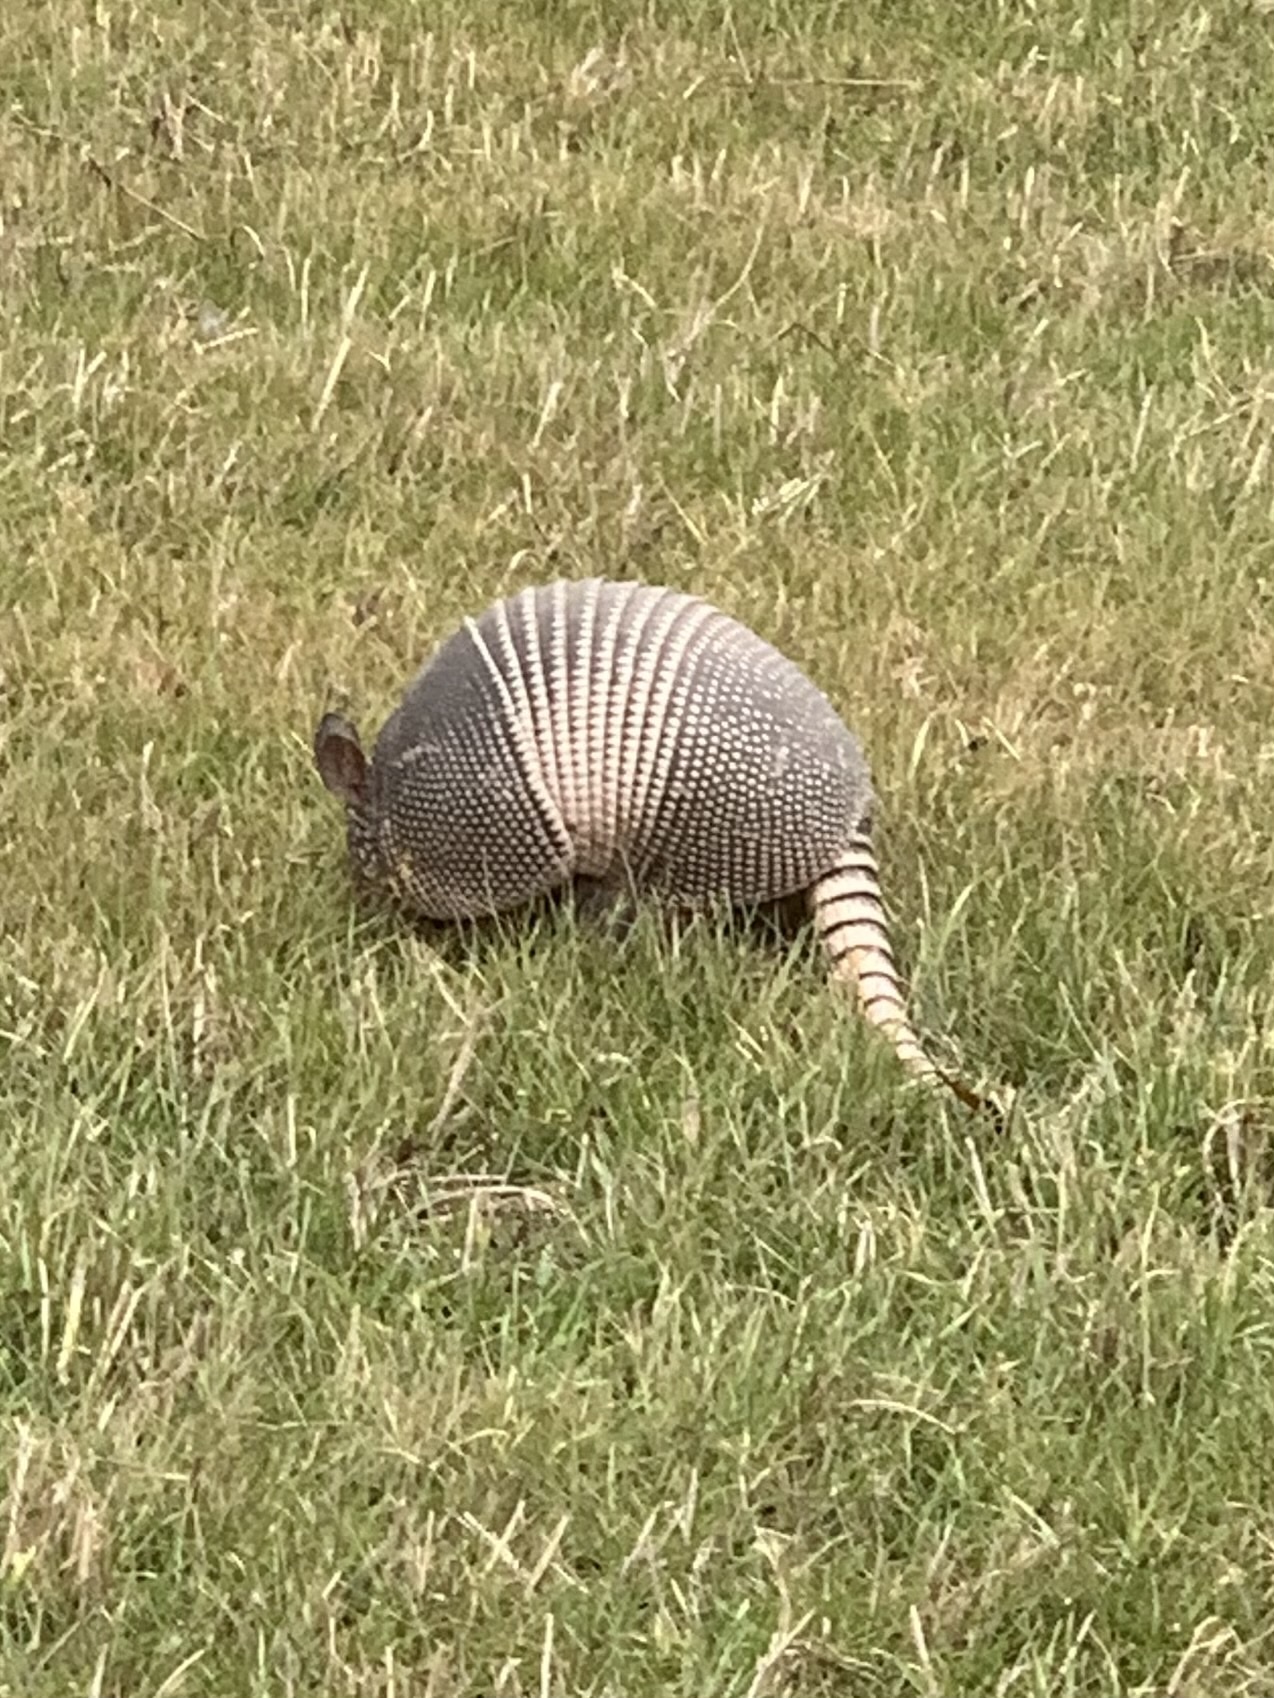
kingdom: Animalia
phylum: Chordata
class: Mammalia
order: Cingulata
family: Dasypodidae
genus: Dasypus
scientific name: Dasypus novemcinctus
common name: Nine-banded armadillo
